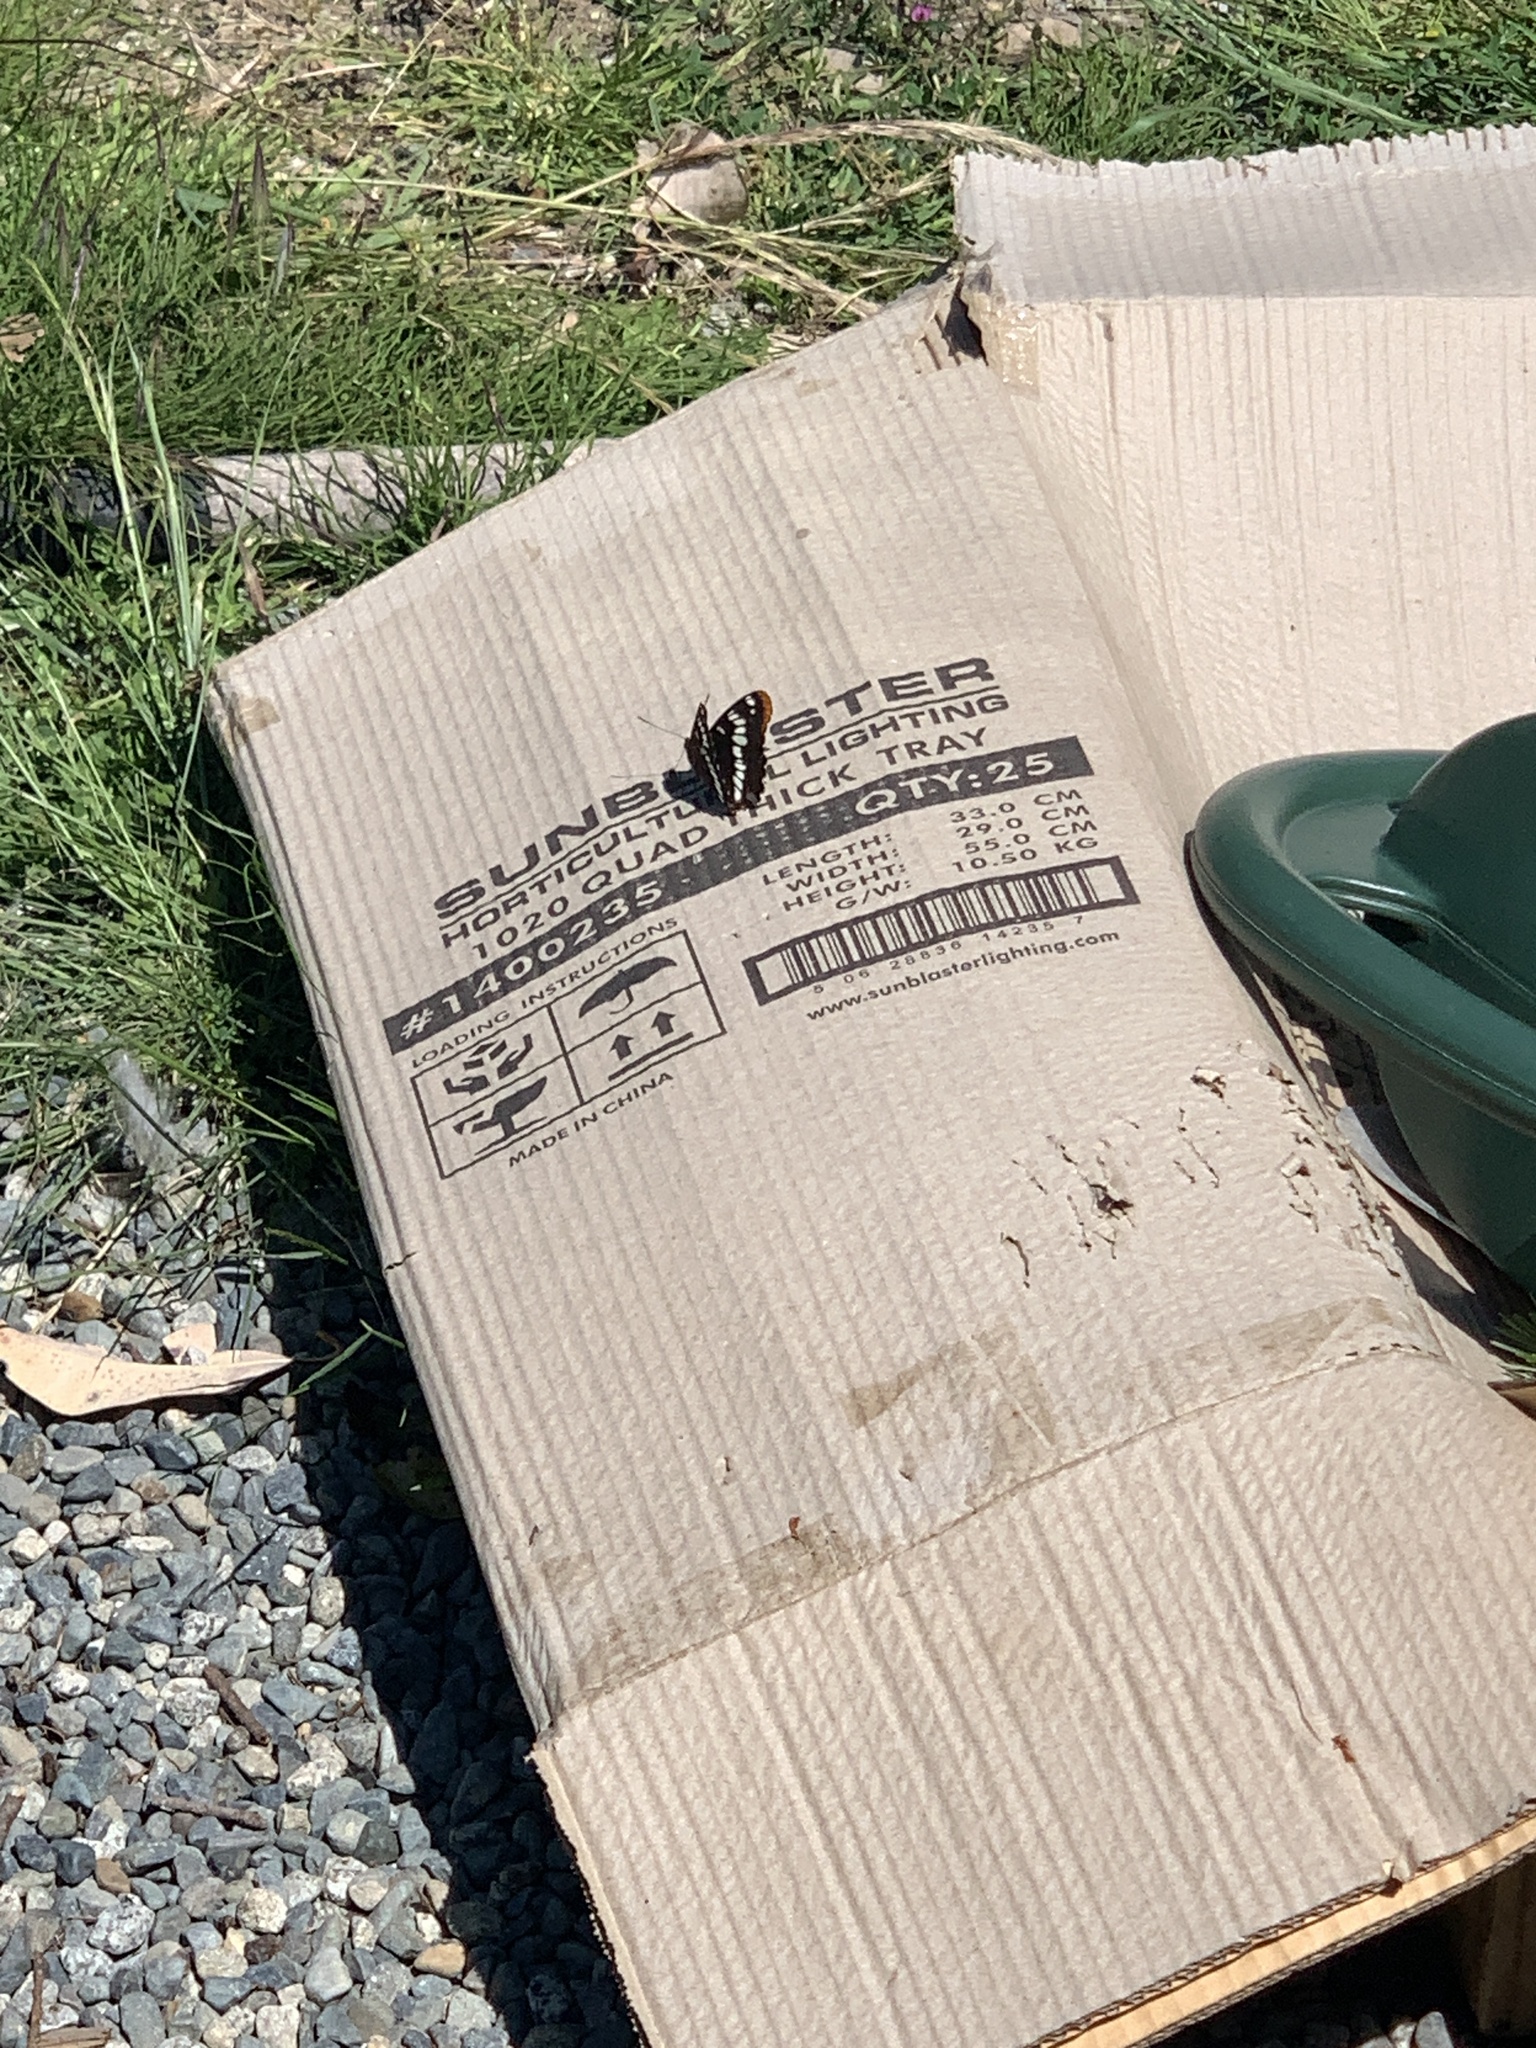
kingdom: Animalia
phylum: Arthropoda
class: Insecta
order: Lepidoptera
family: Nymphalidae
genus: Limenitis
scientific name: Limenitis lorquini
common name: Lorquin's admiral
